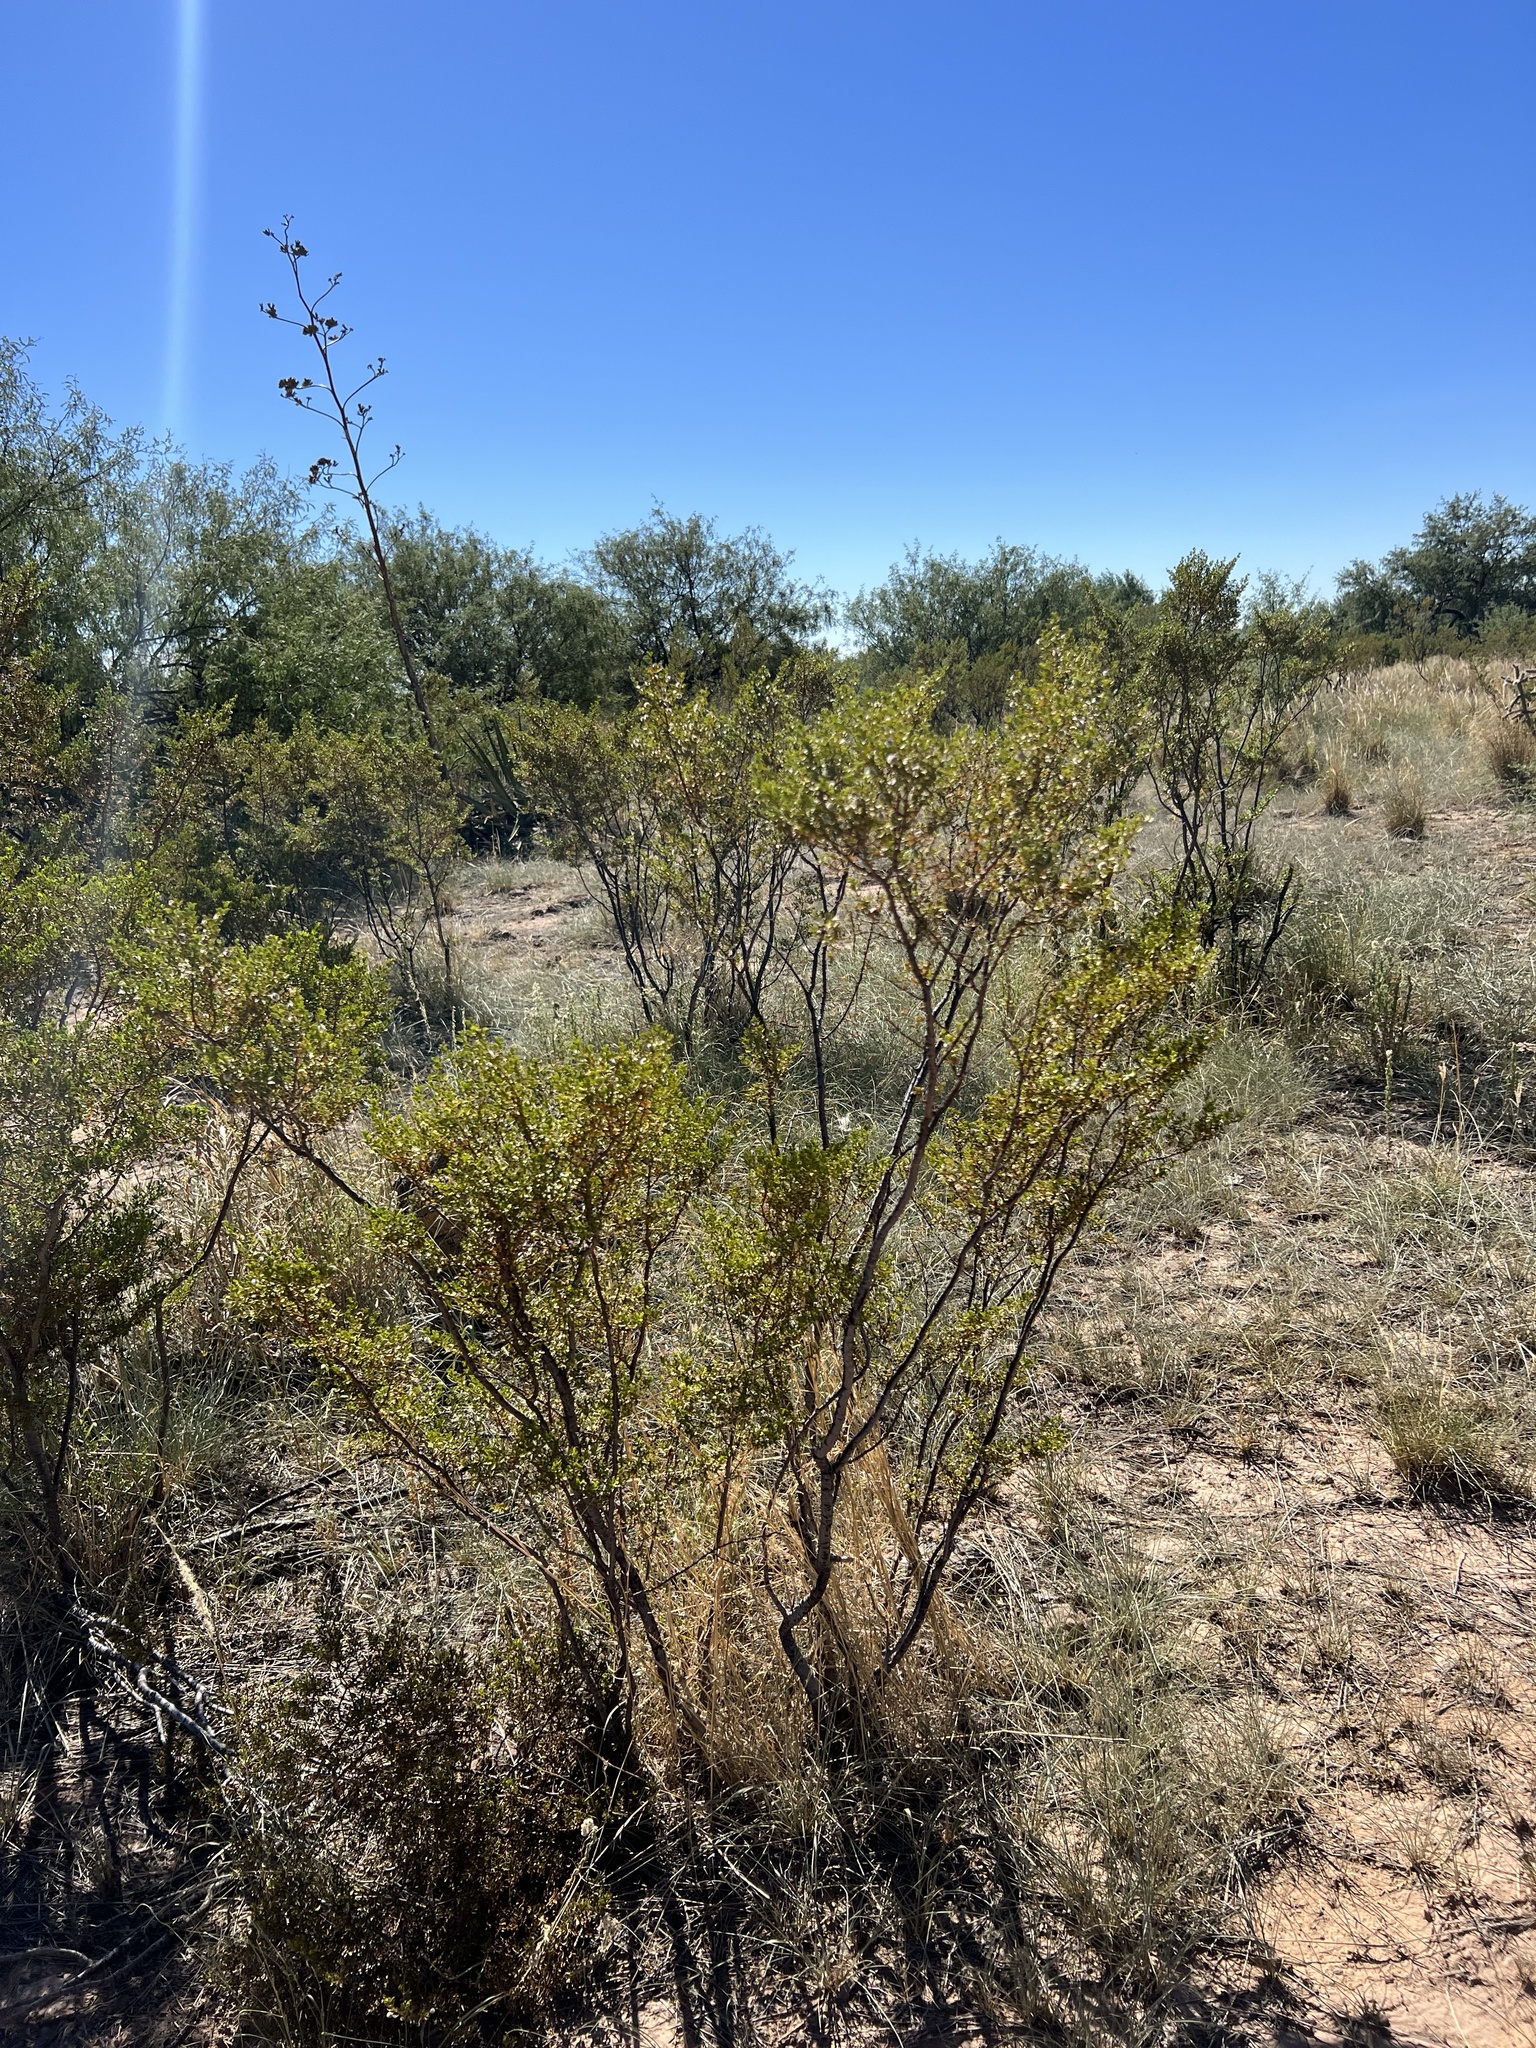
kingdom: Plantae
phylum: Tracheophyta
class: Magnoliopsida
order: Zygophyllales
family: Zygophyllaceae
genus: Larrea
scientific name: Larrea tridentata
